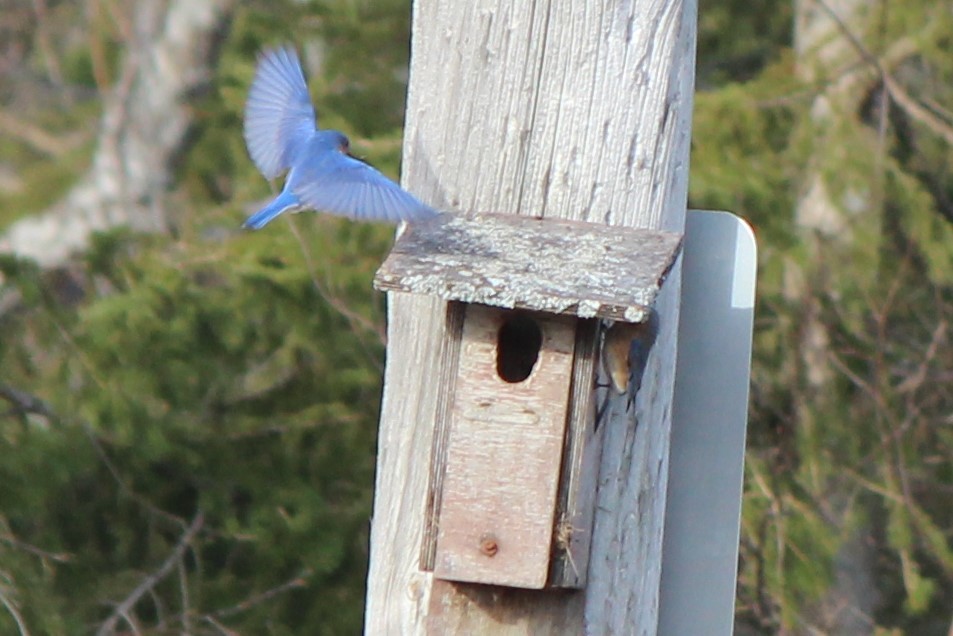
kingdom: Animalia
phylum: Chordata
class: Aves
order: Passeriformes
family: Turdidae
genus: Sialia
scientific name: Sialia sialis
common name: Eastern bluebird
